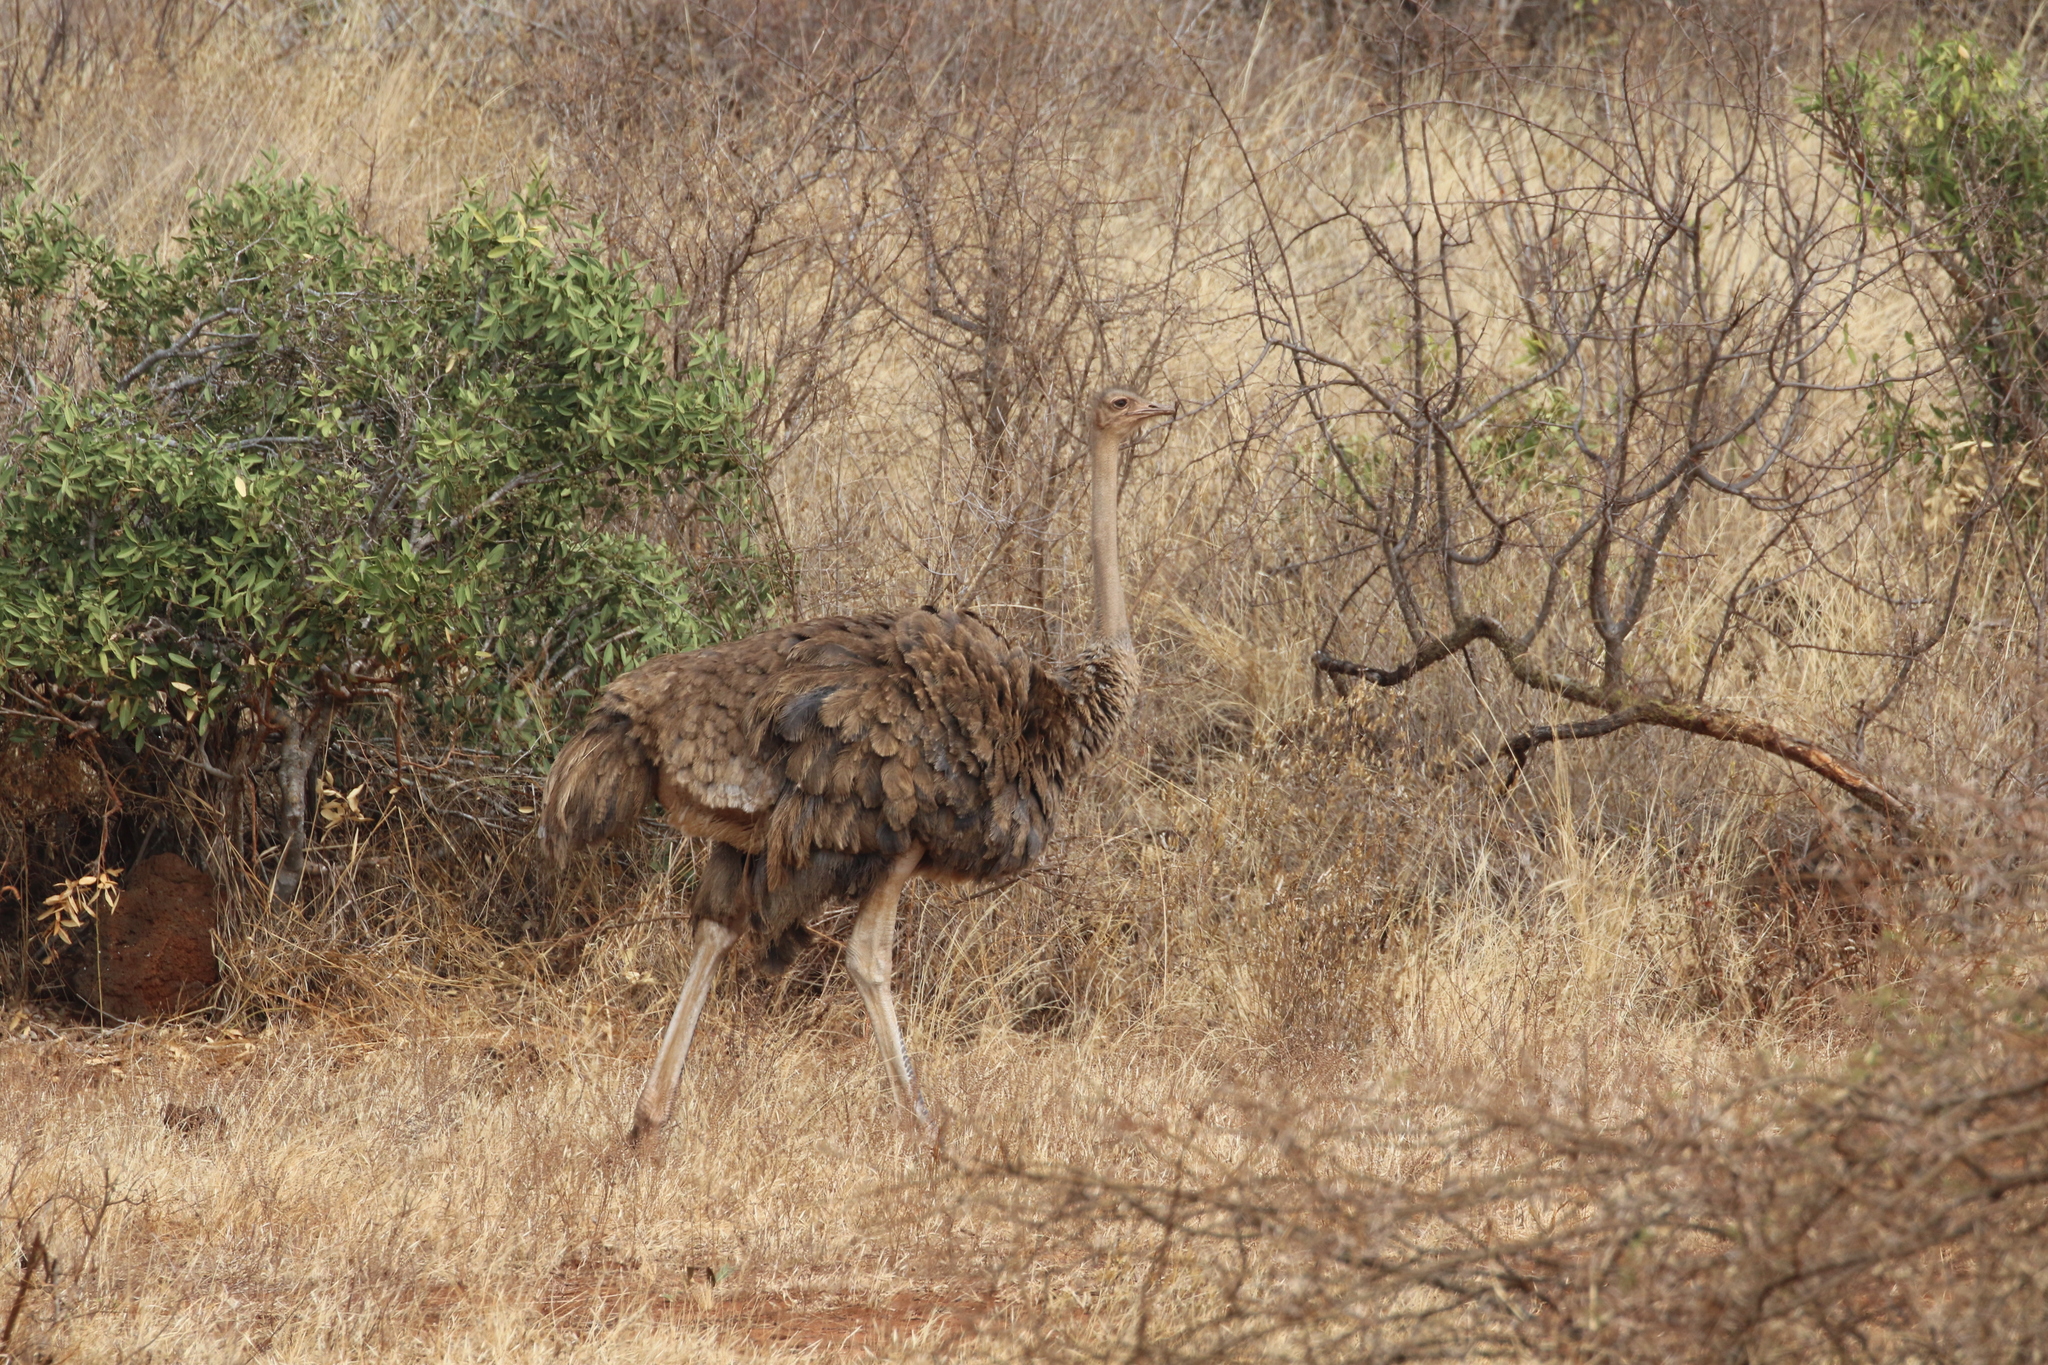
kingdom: Animalia
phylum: Chordata
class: Aves
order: Struthioniformes
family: Struthionidae
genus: Struthio
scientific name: Struthio camelus
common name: Common ostrich
